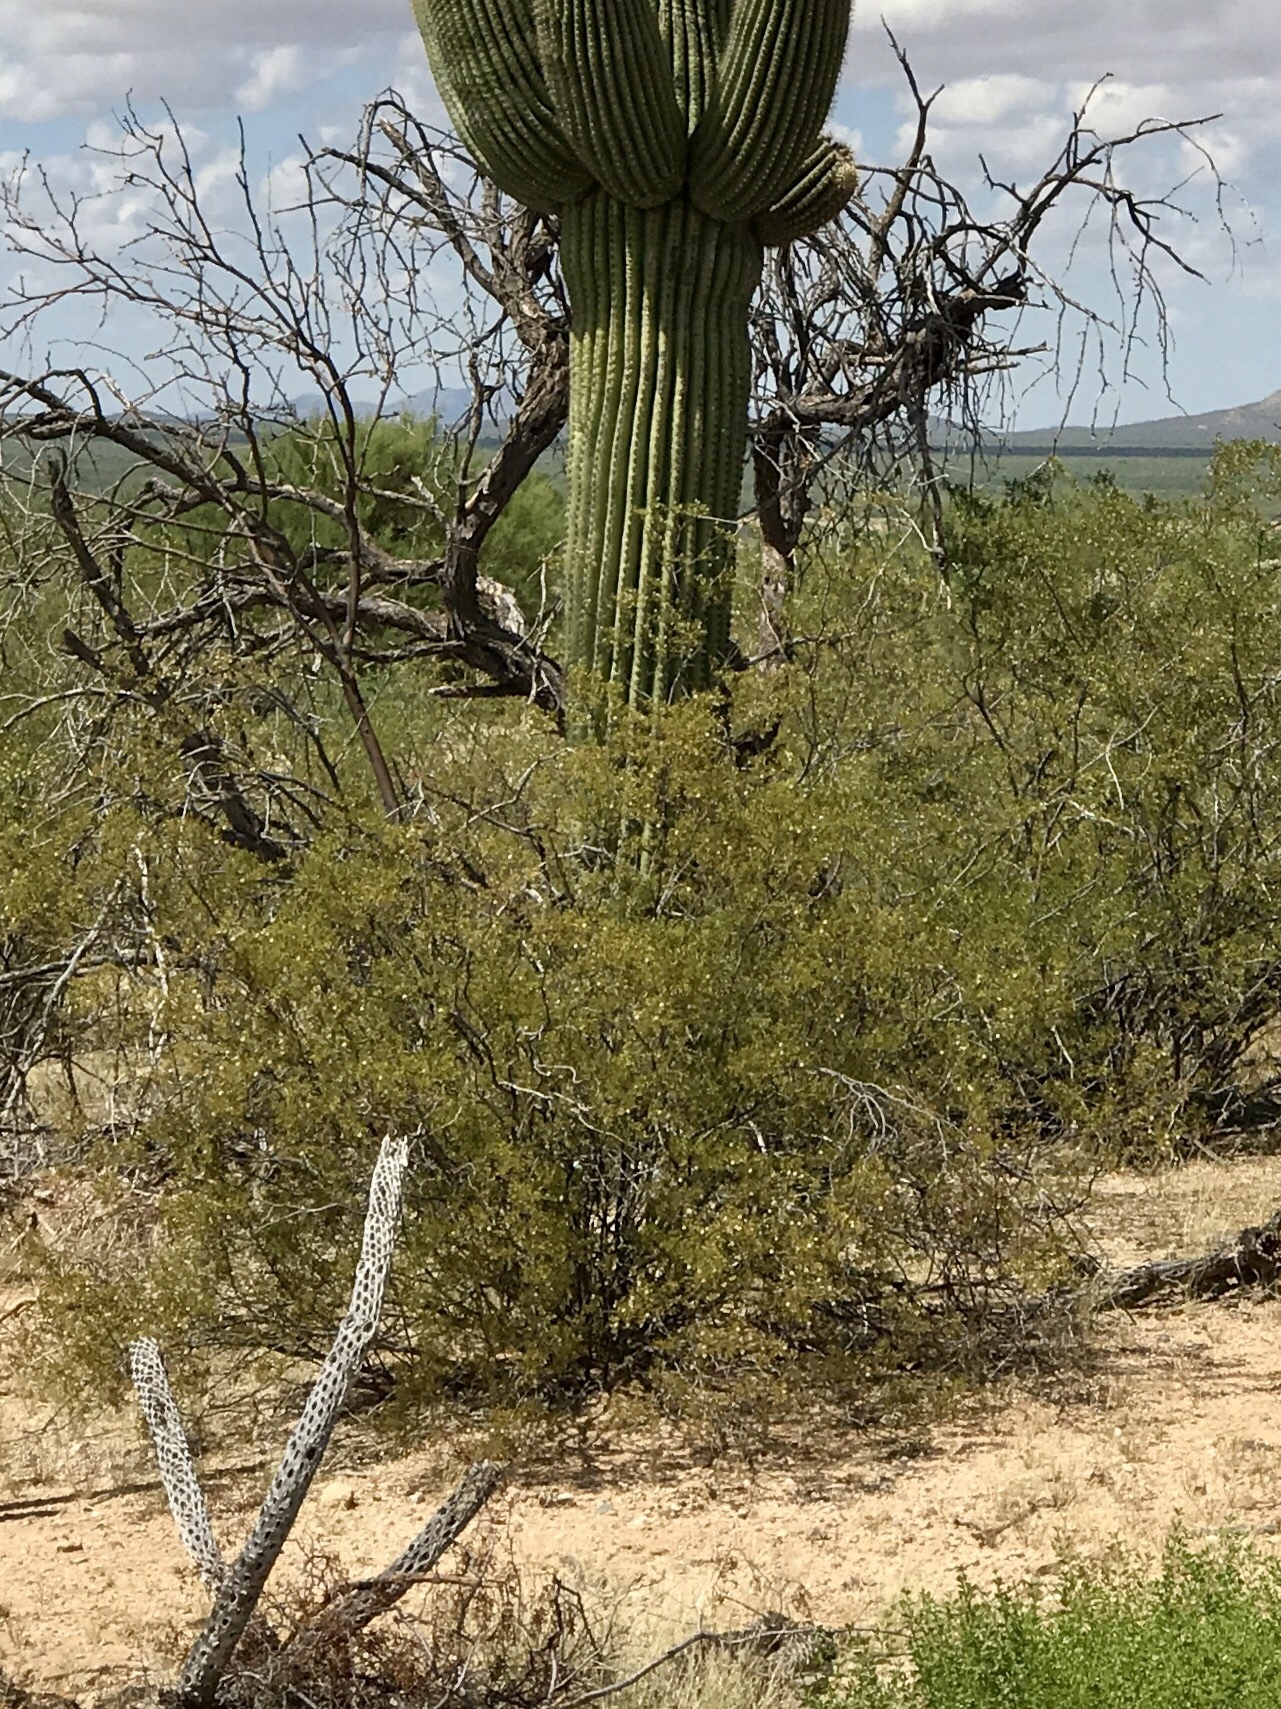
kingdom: Plantae
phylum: Tracheophyta
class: Magnoliopsida
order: Zygophyllales
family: Zygophyllaceae
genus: Larrea
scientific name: Larrea tridentata
